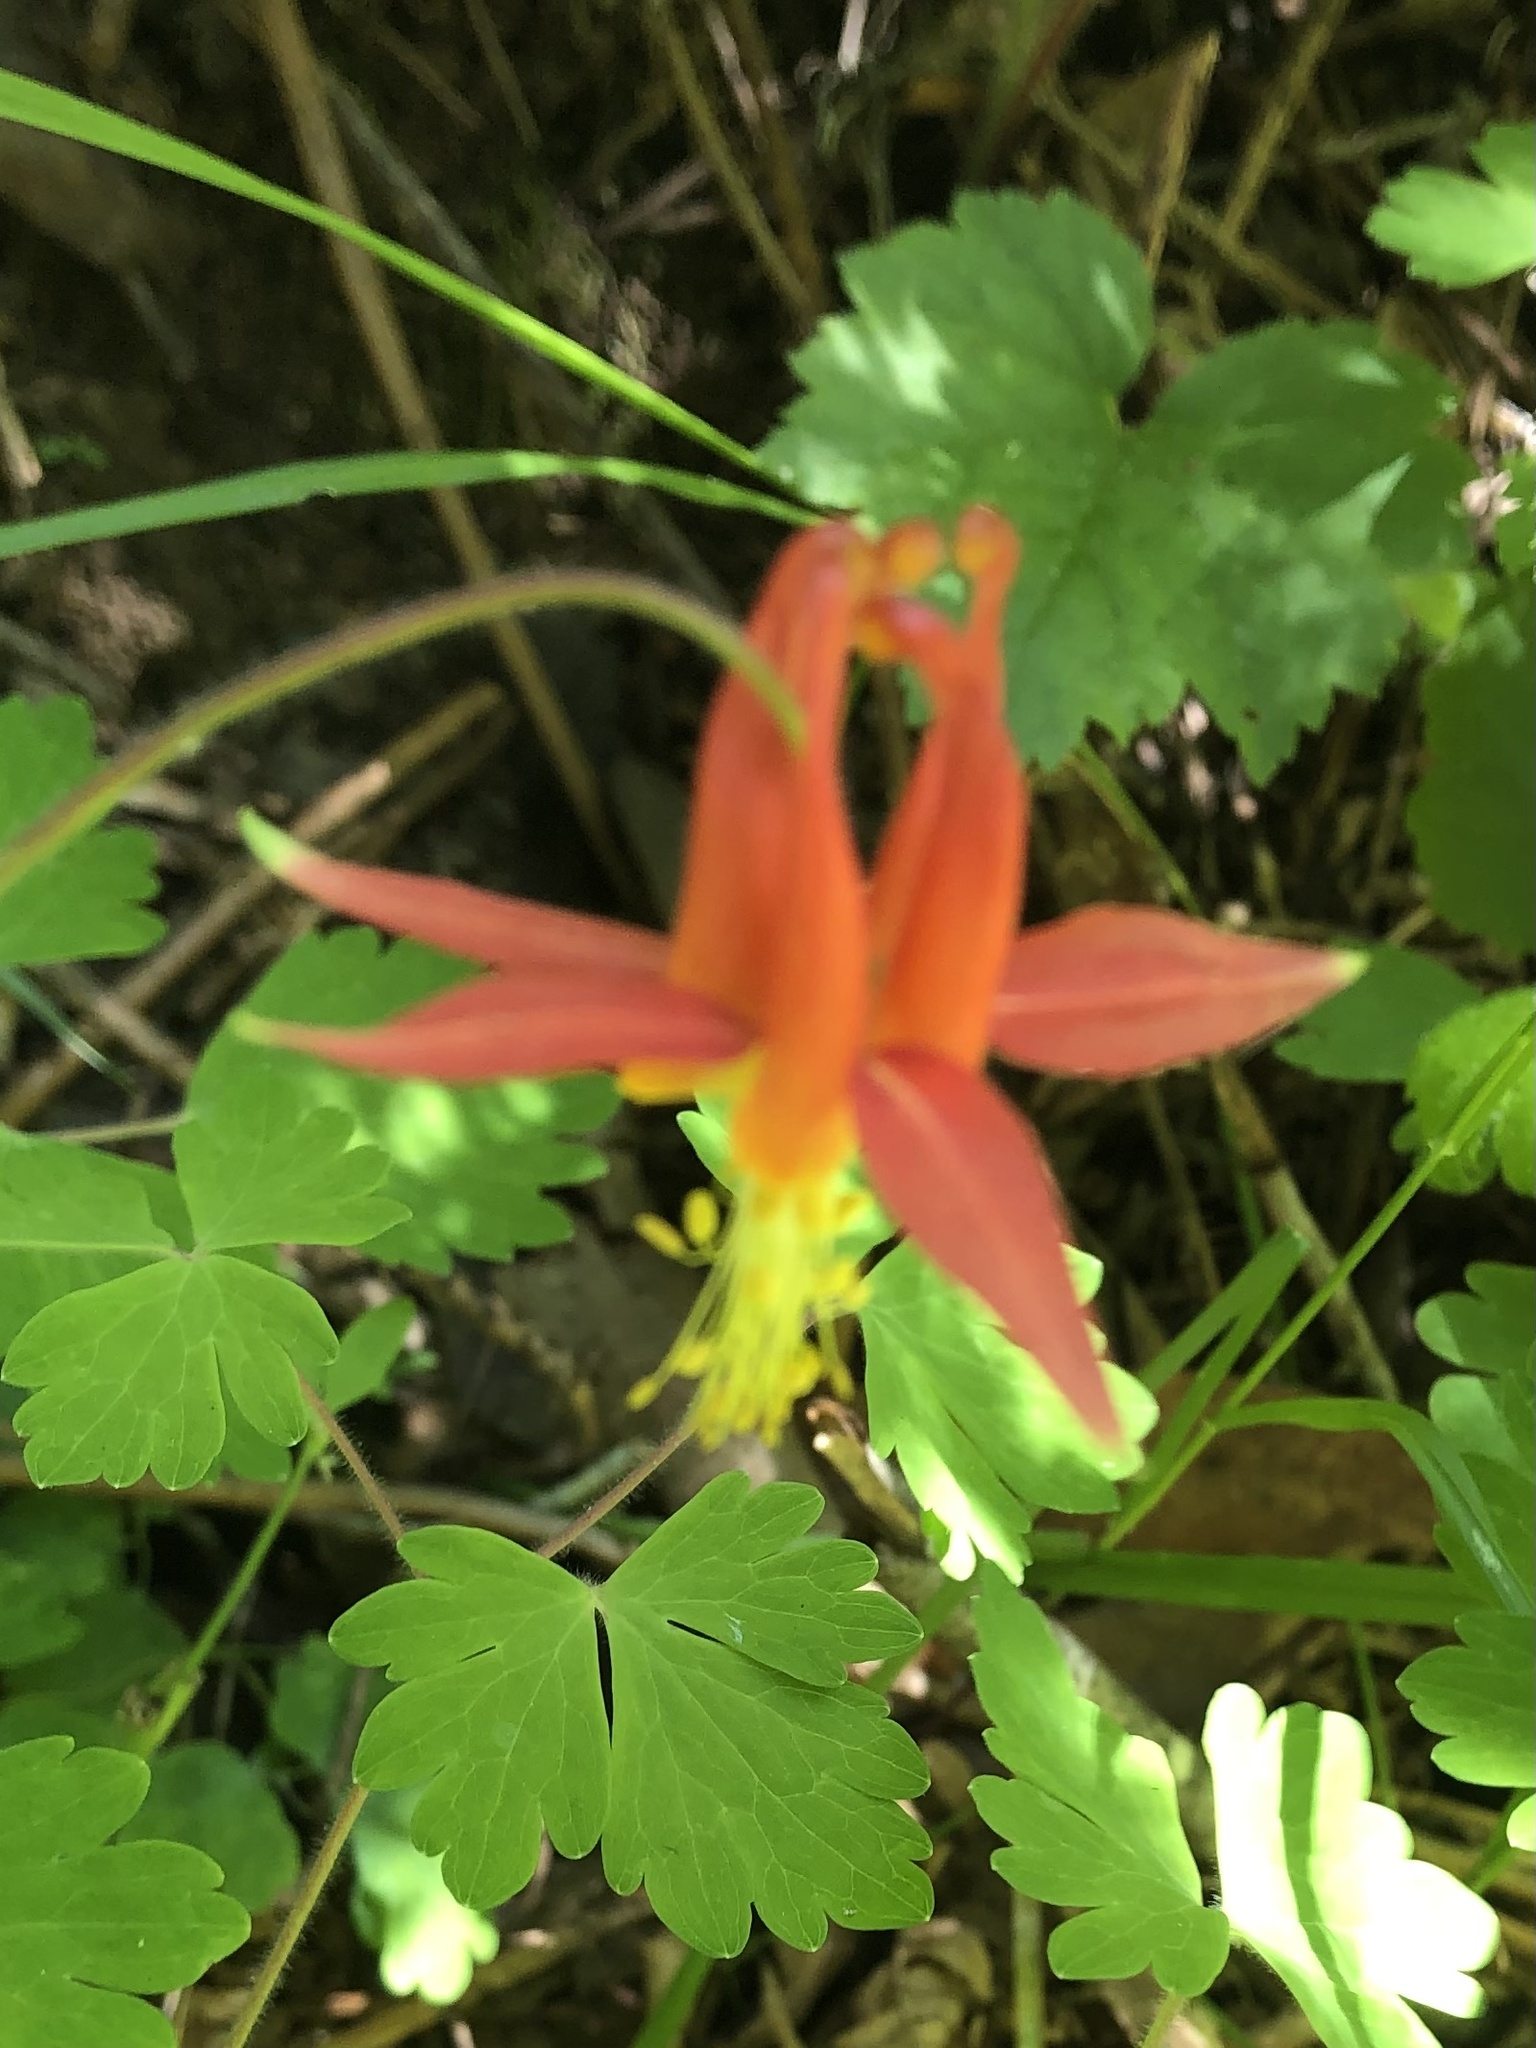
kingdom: Plantae
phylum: Tracheophyta
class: Magnoliopsida
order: Ranunculales
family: Ranunculaceae
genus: Aquilegia
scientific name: Aquilegia formosa
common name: Sitka columbine
